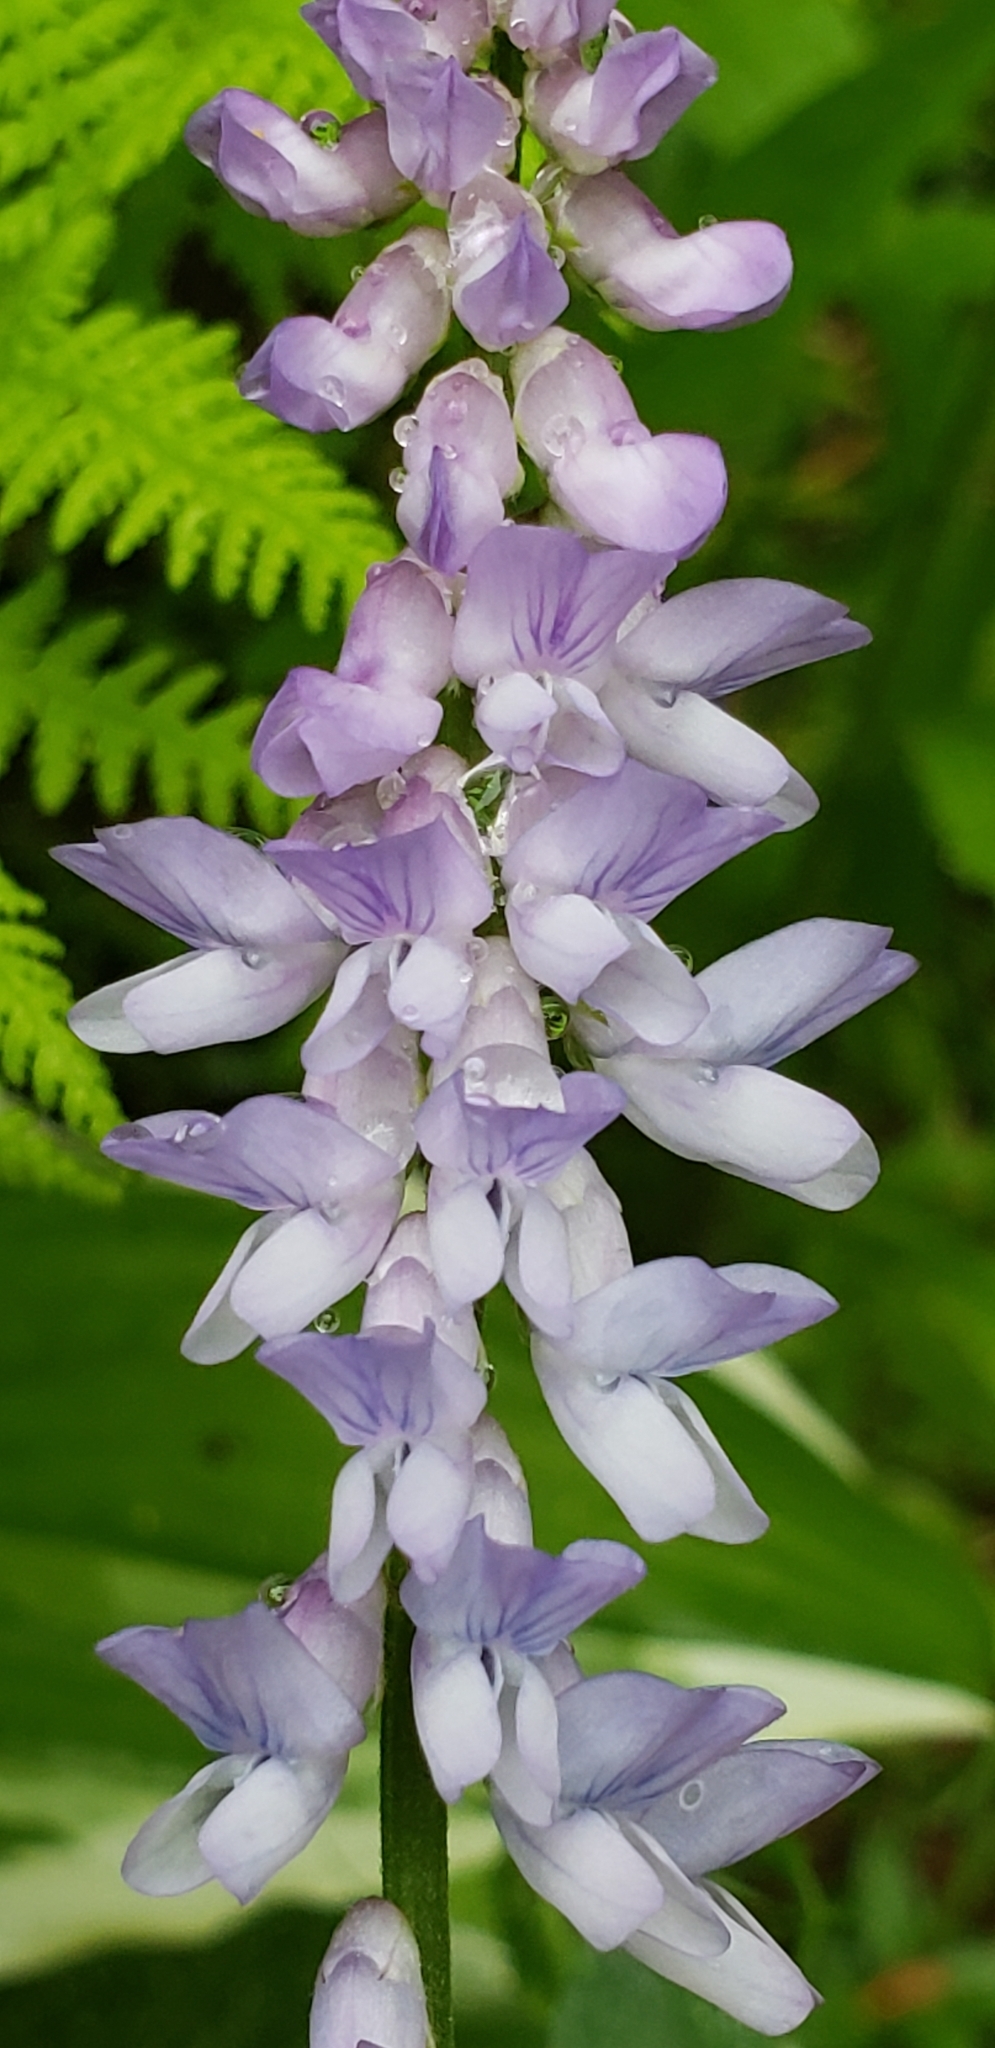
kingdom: Plantae
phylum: Tracheophyta
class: Magnoliopsida
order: Fabales
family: Fabaceae
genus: Vicia
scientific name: Vicia cracca
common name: Bird vetch
